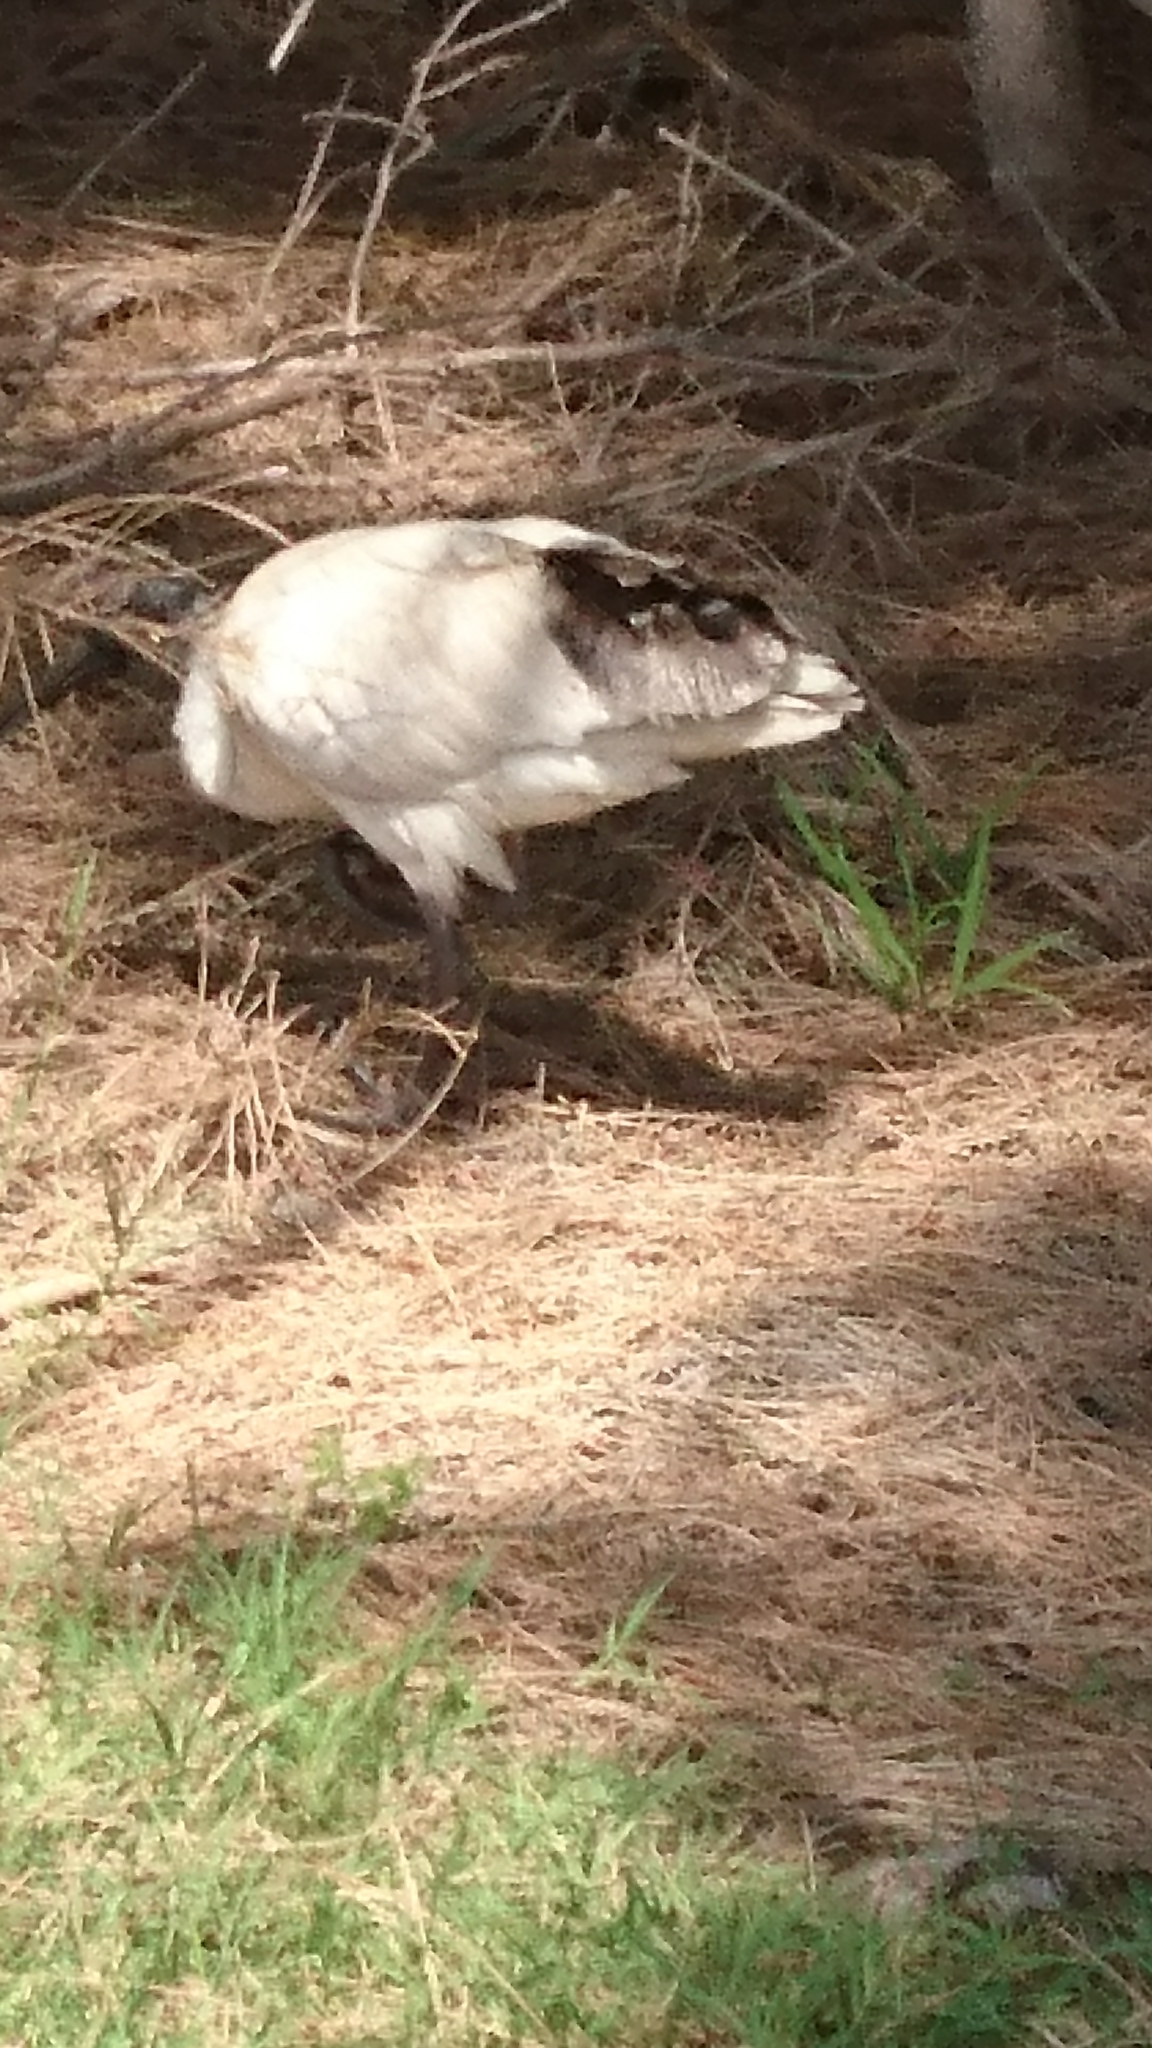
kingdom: Animalia
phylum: Chordata
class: Aves
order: Pelecaniformes
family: Threskiornithidae
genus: Threskiornis
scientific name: Threskiornis molucca
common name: Australian white ibis
